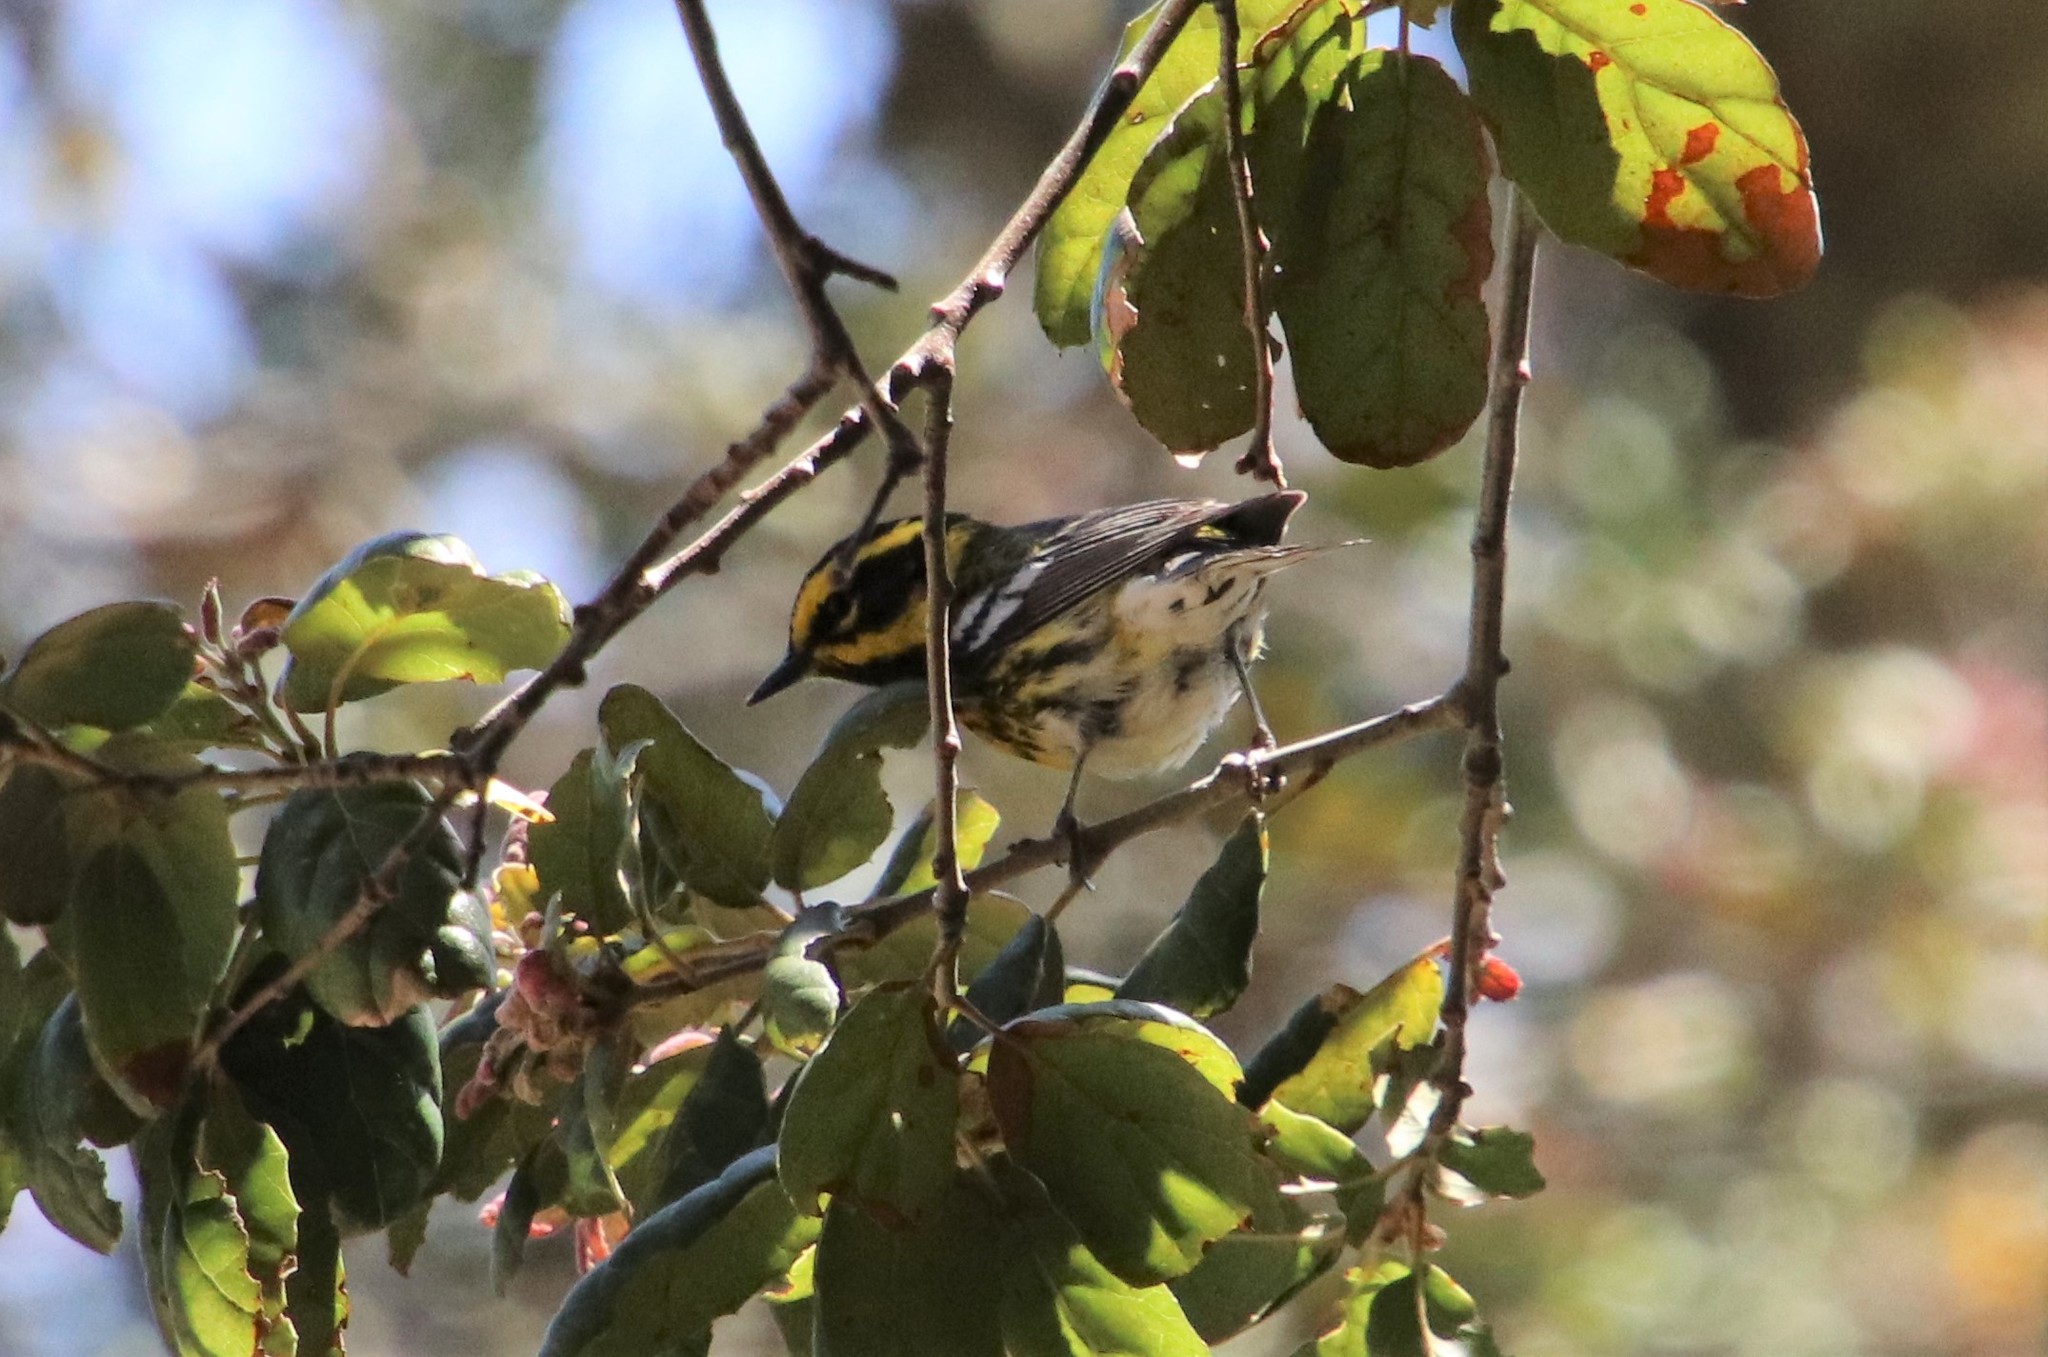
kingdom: Animalia
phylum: Chordata
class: Aves
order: Passeriformes
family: Parulidae
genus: Setophaga
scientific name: Setophaga townsendi
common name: Townsend's warbler
